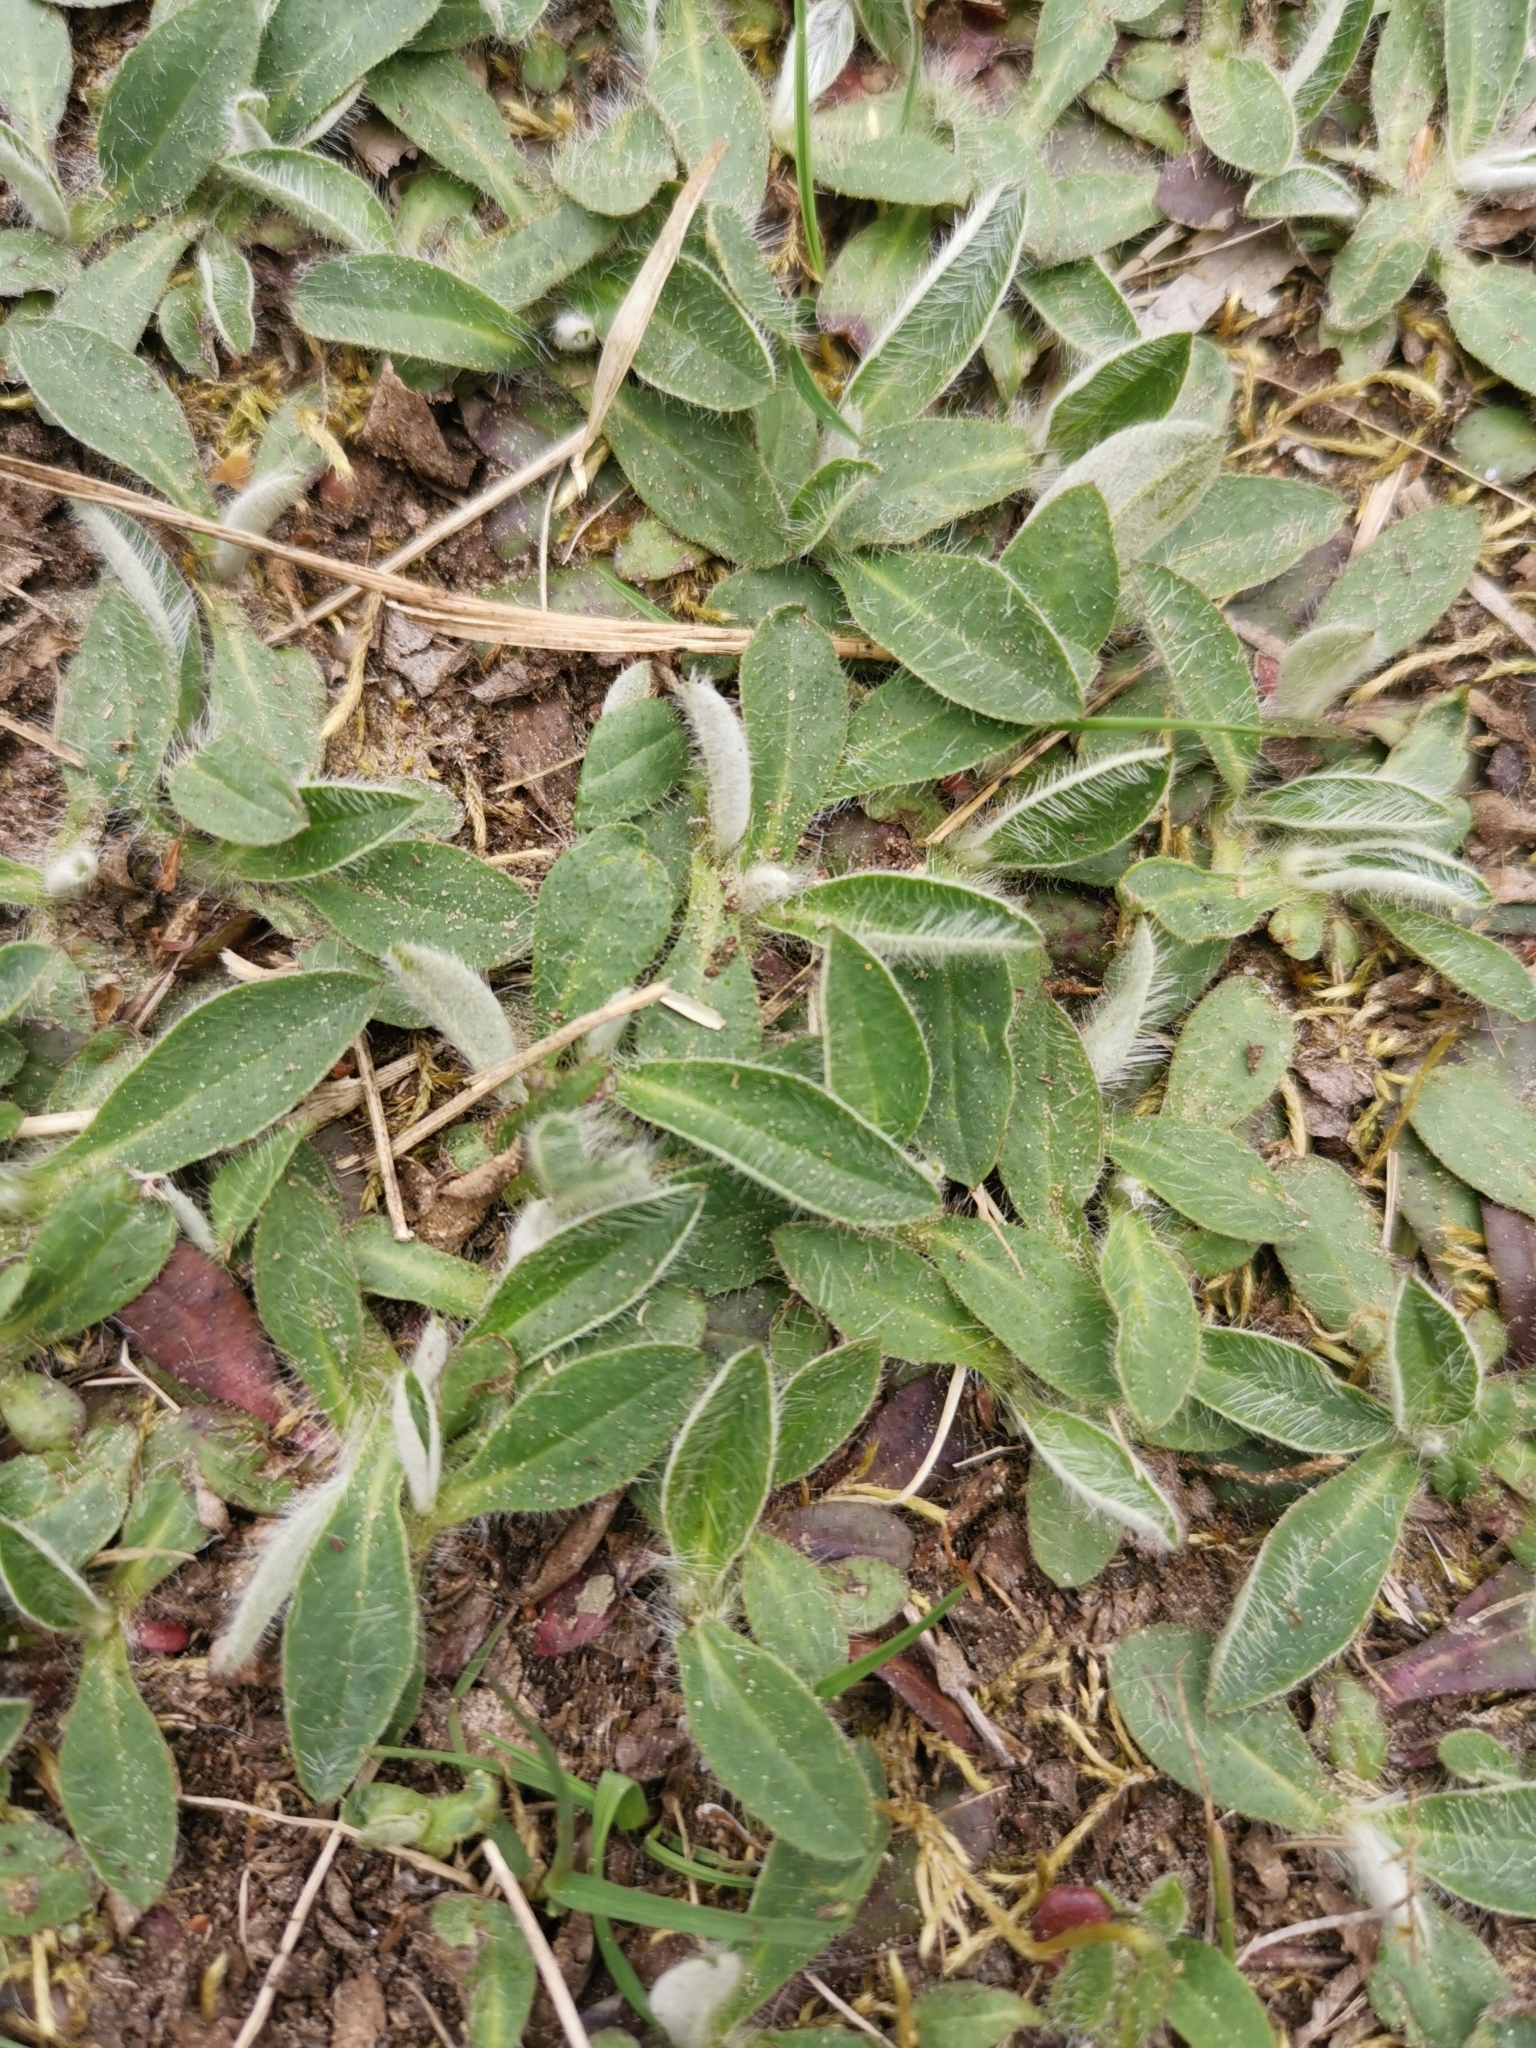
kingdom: Plantae
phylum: Tracheophyta
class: Magnoliopsida
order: Asterales
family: Asteraceae
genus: Pilosella
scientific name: Pilosella officinarum
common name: Mouse-ear hawkweed
